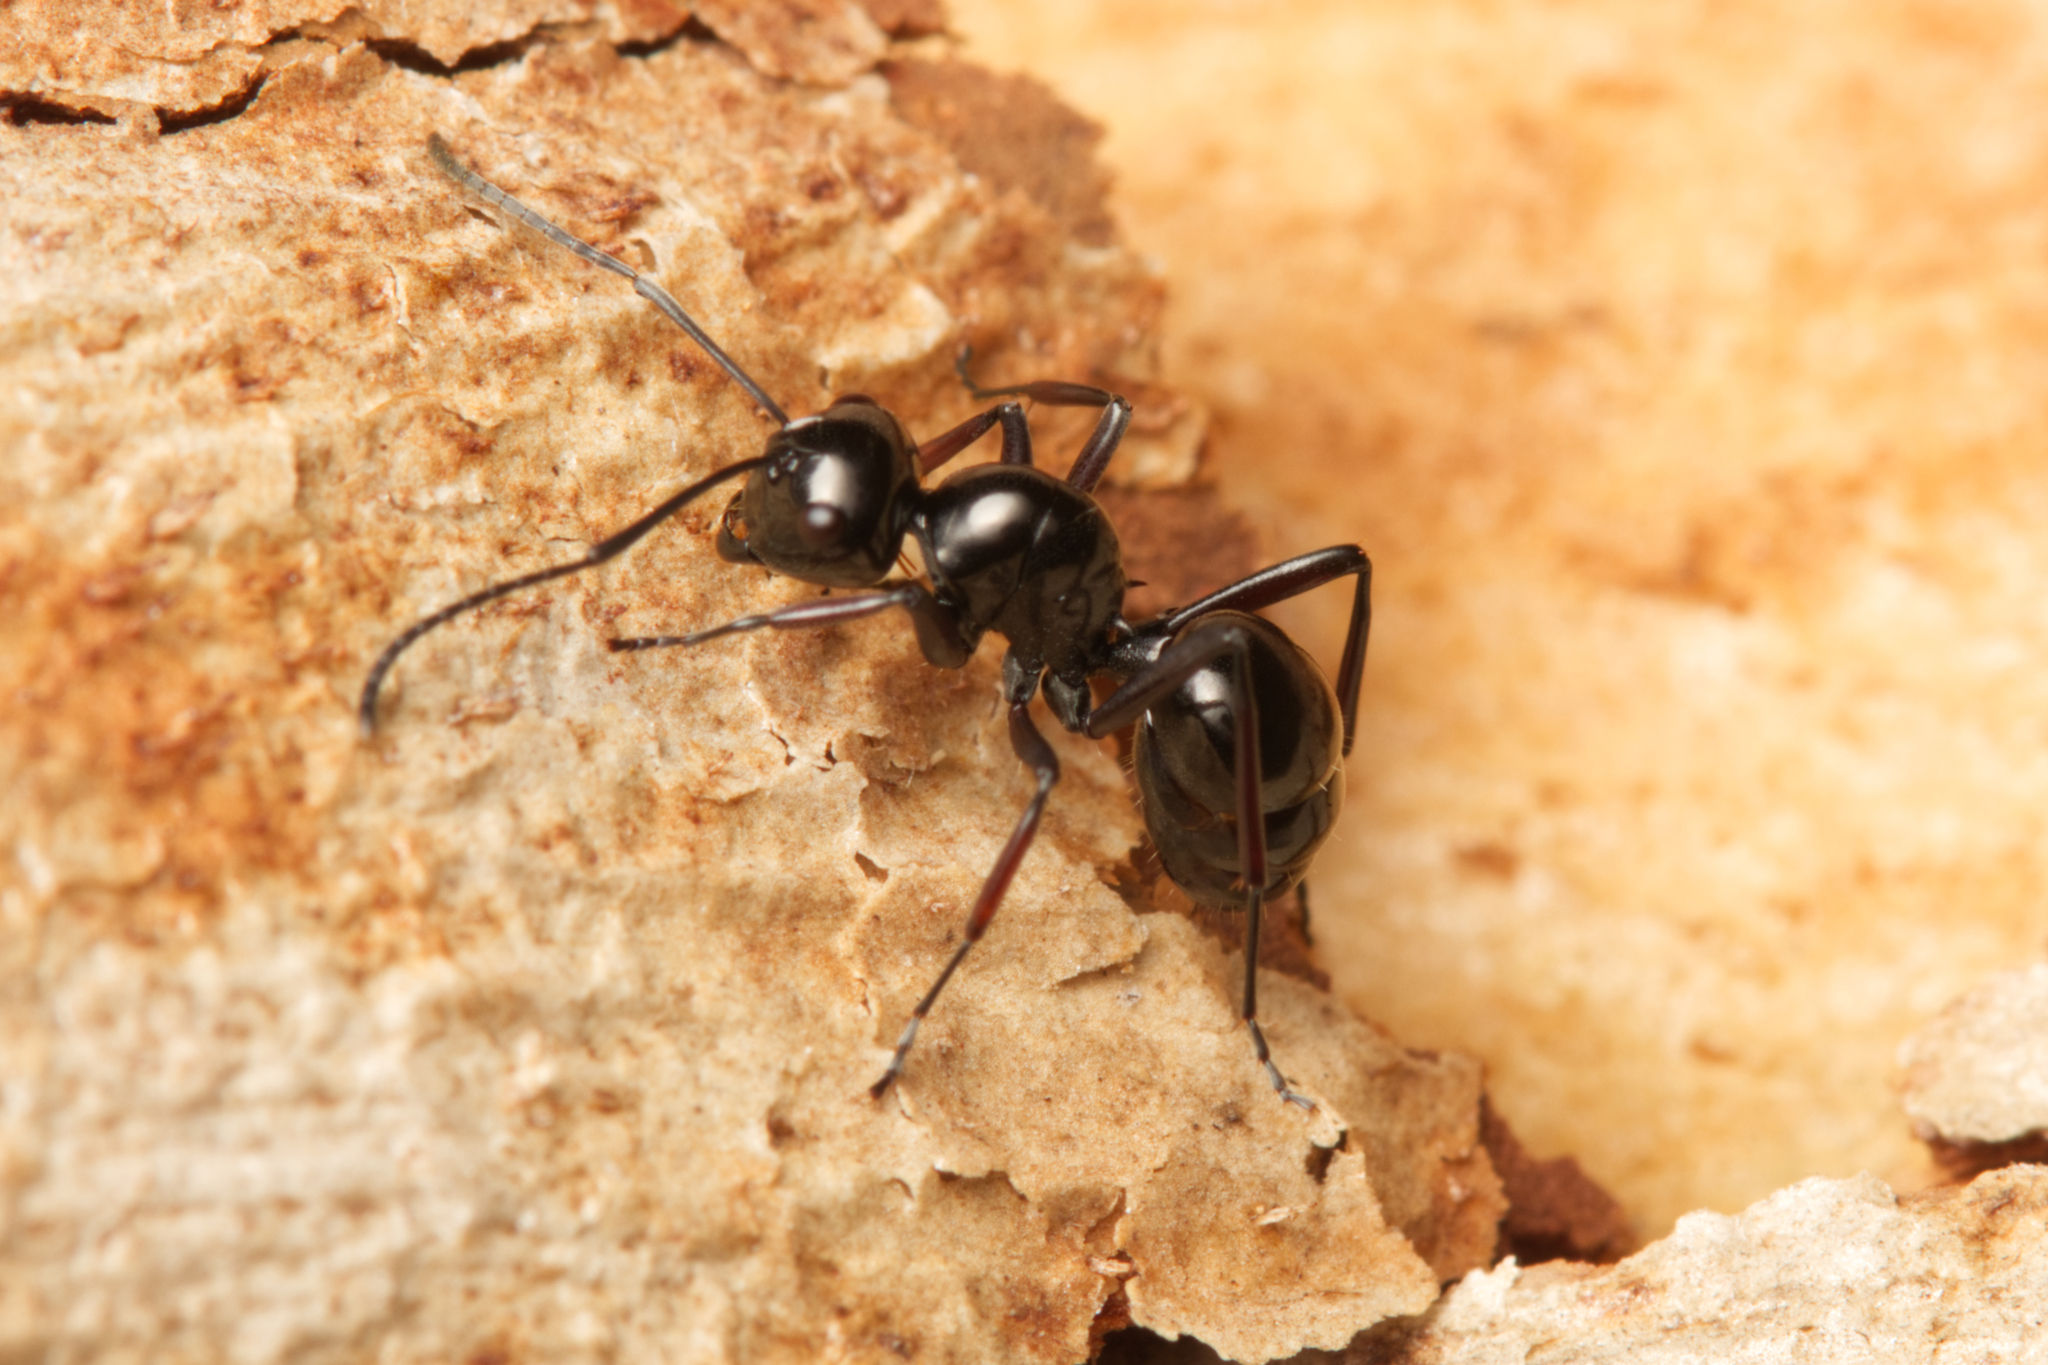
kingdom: Animalia
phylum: Arthropoda
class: Insecta
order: Hymenoptera
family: Formicidae
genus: Polyrhachis
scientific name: Polyrhachis australis
